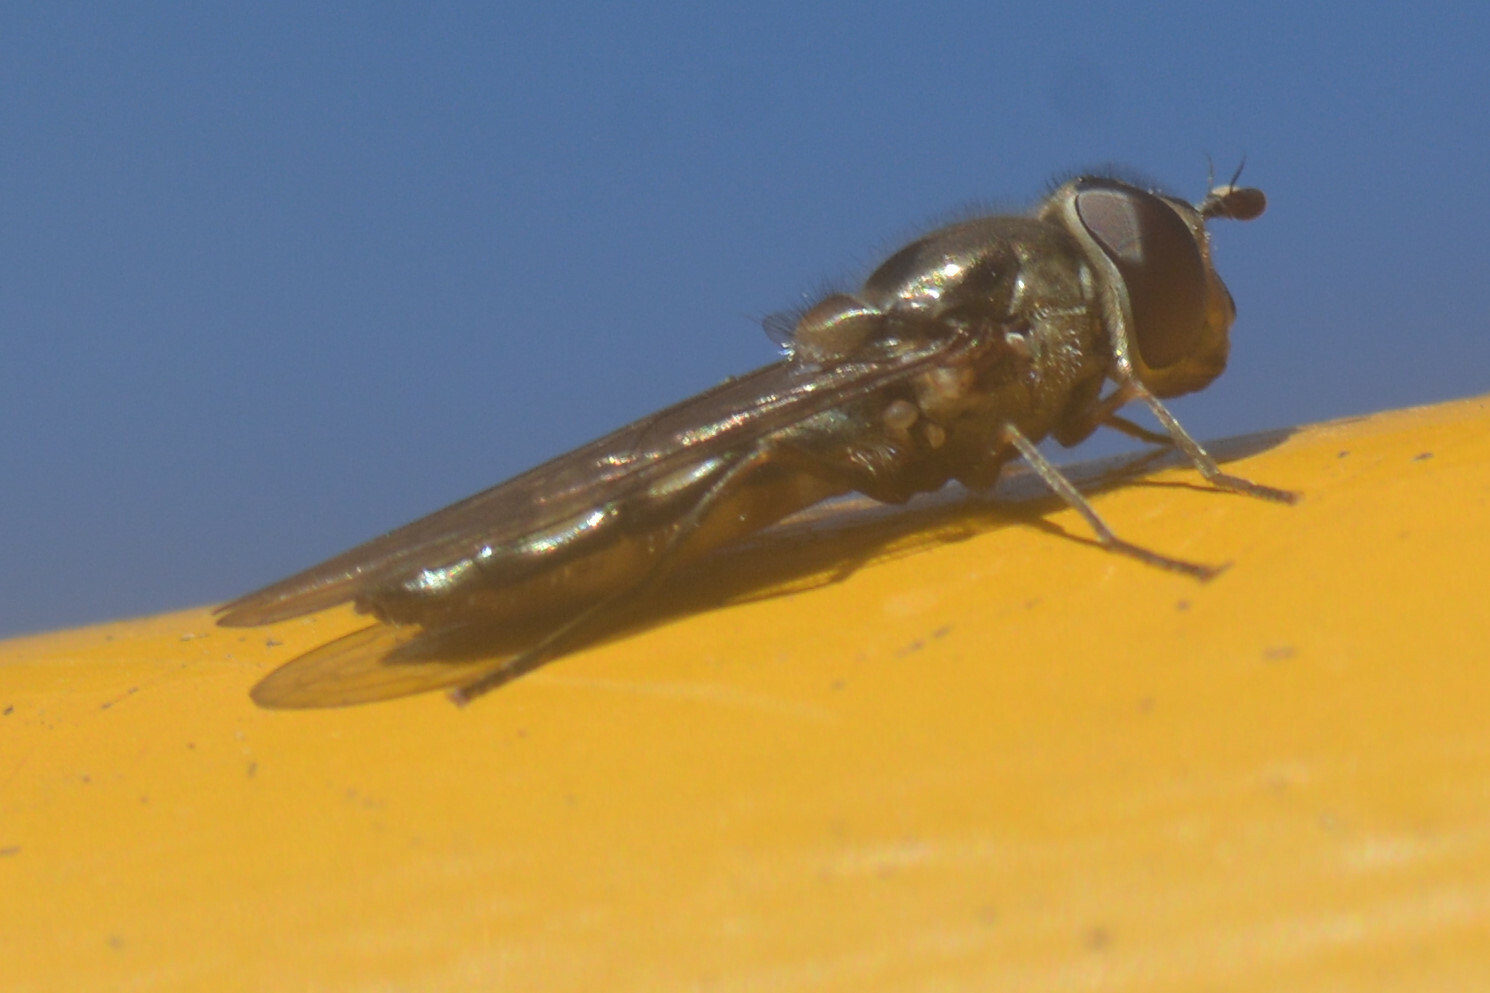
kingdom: Animalia
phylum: Arthropoda
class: Insecta
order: Diptera
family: Syrphidae
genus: Meliscaeva
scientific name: Meliscaeva auricollis
